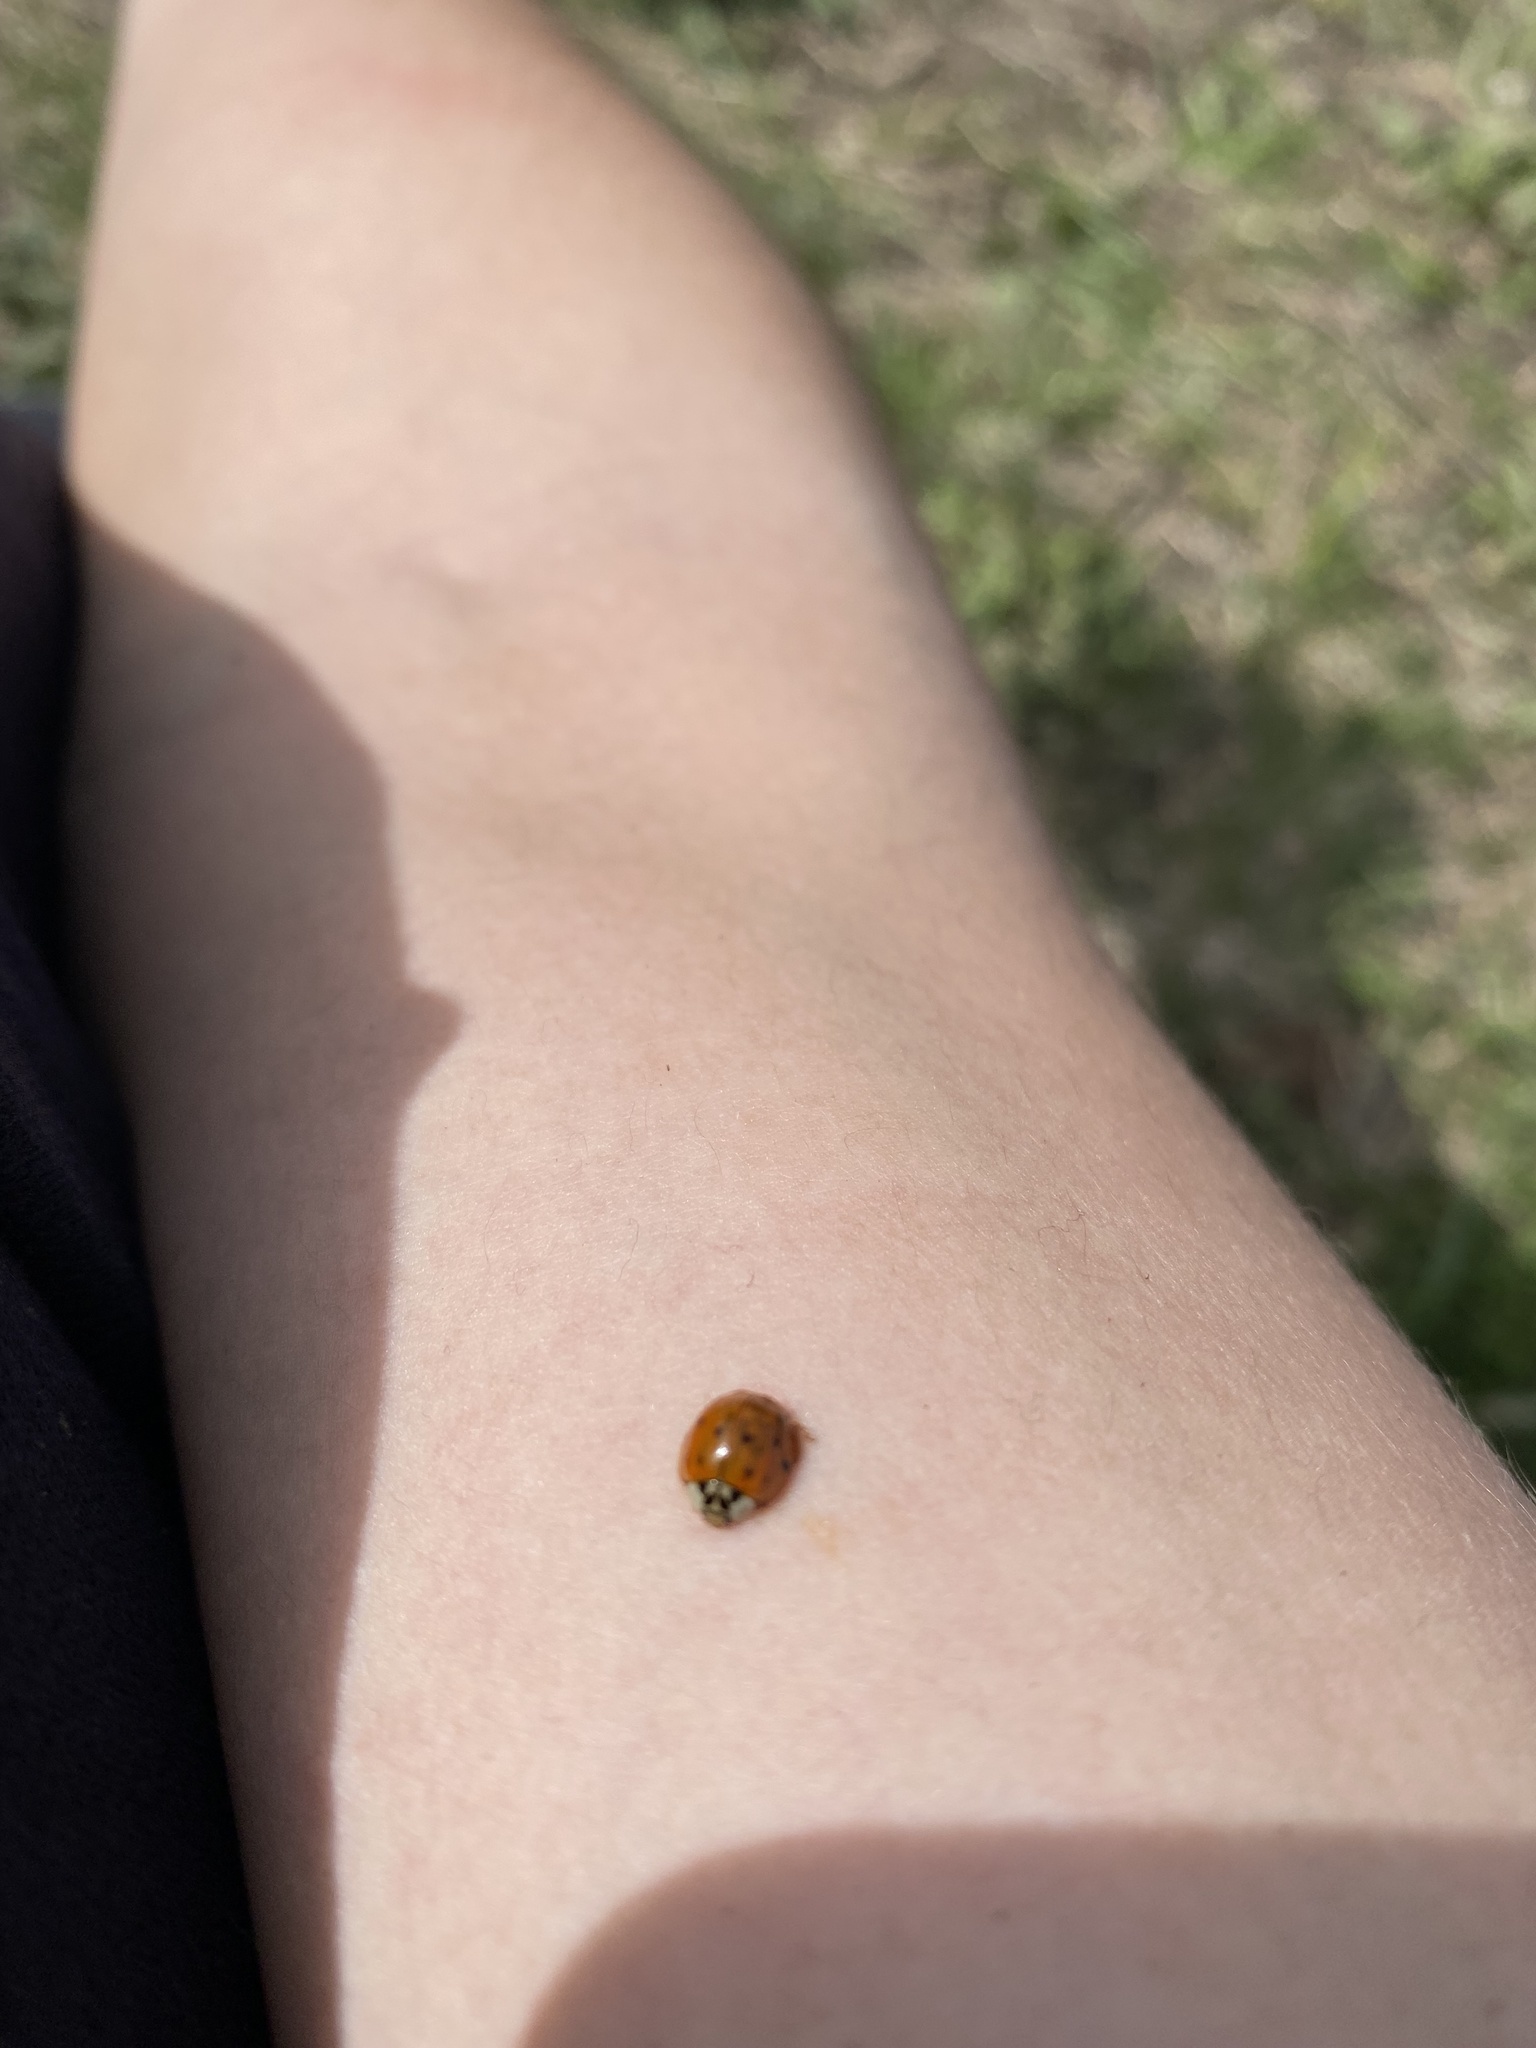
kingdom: Animalia
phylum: Arthropoda
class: Insecta
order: Coleoptera
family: Coccinellidae
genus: Harmonia
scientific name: Harmonia axyridis
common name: Harlequin ladybird
